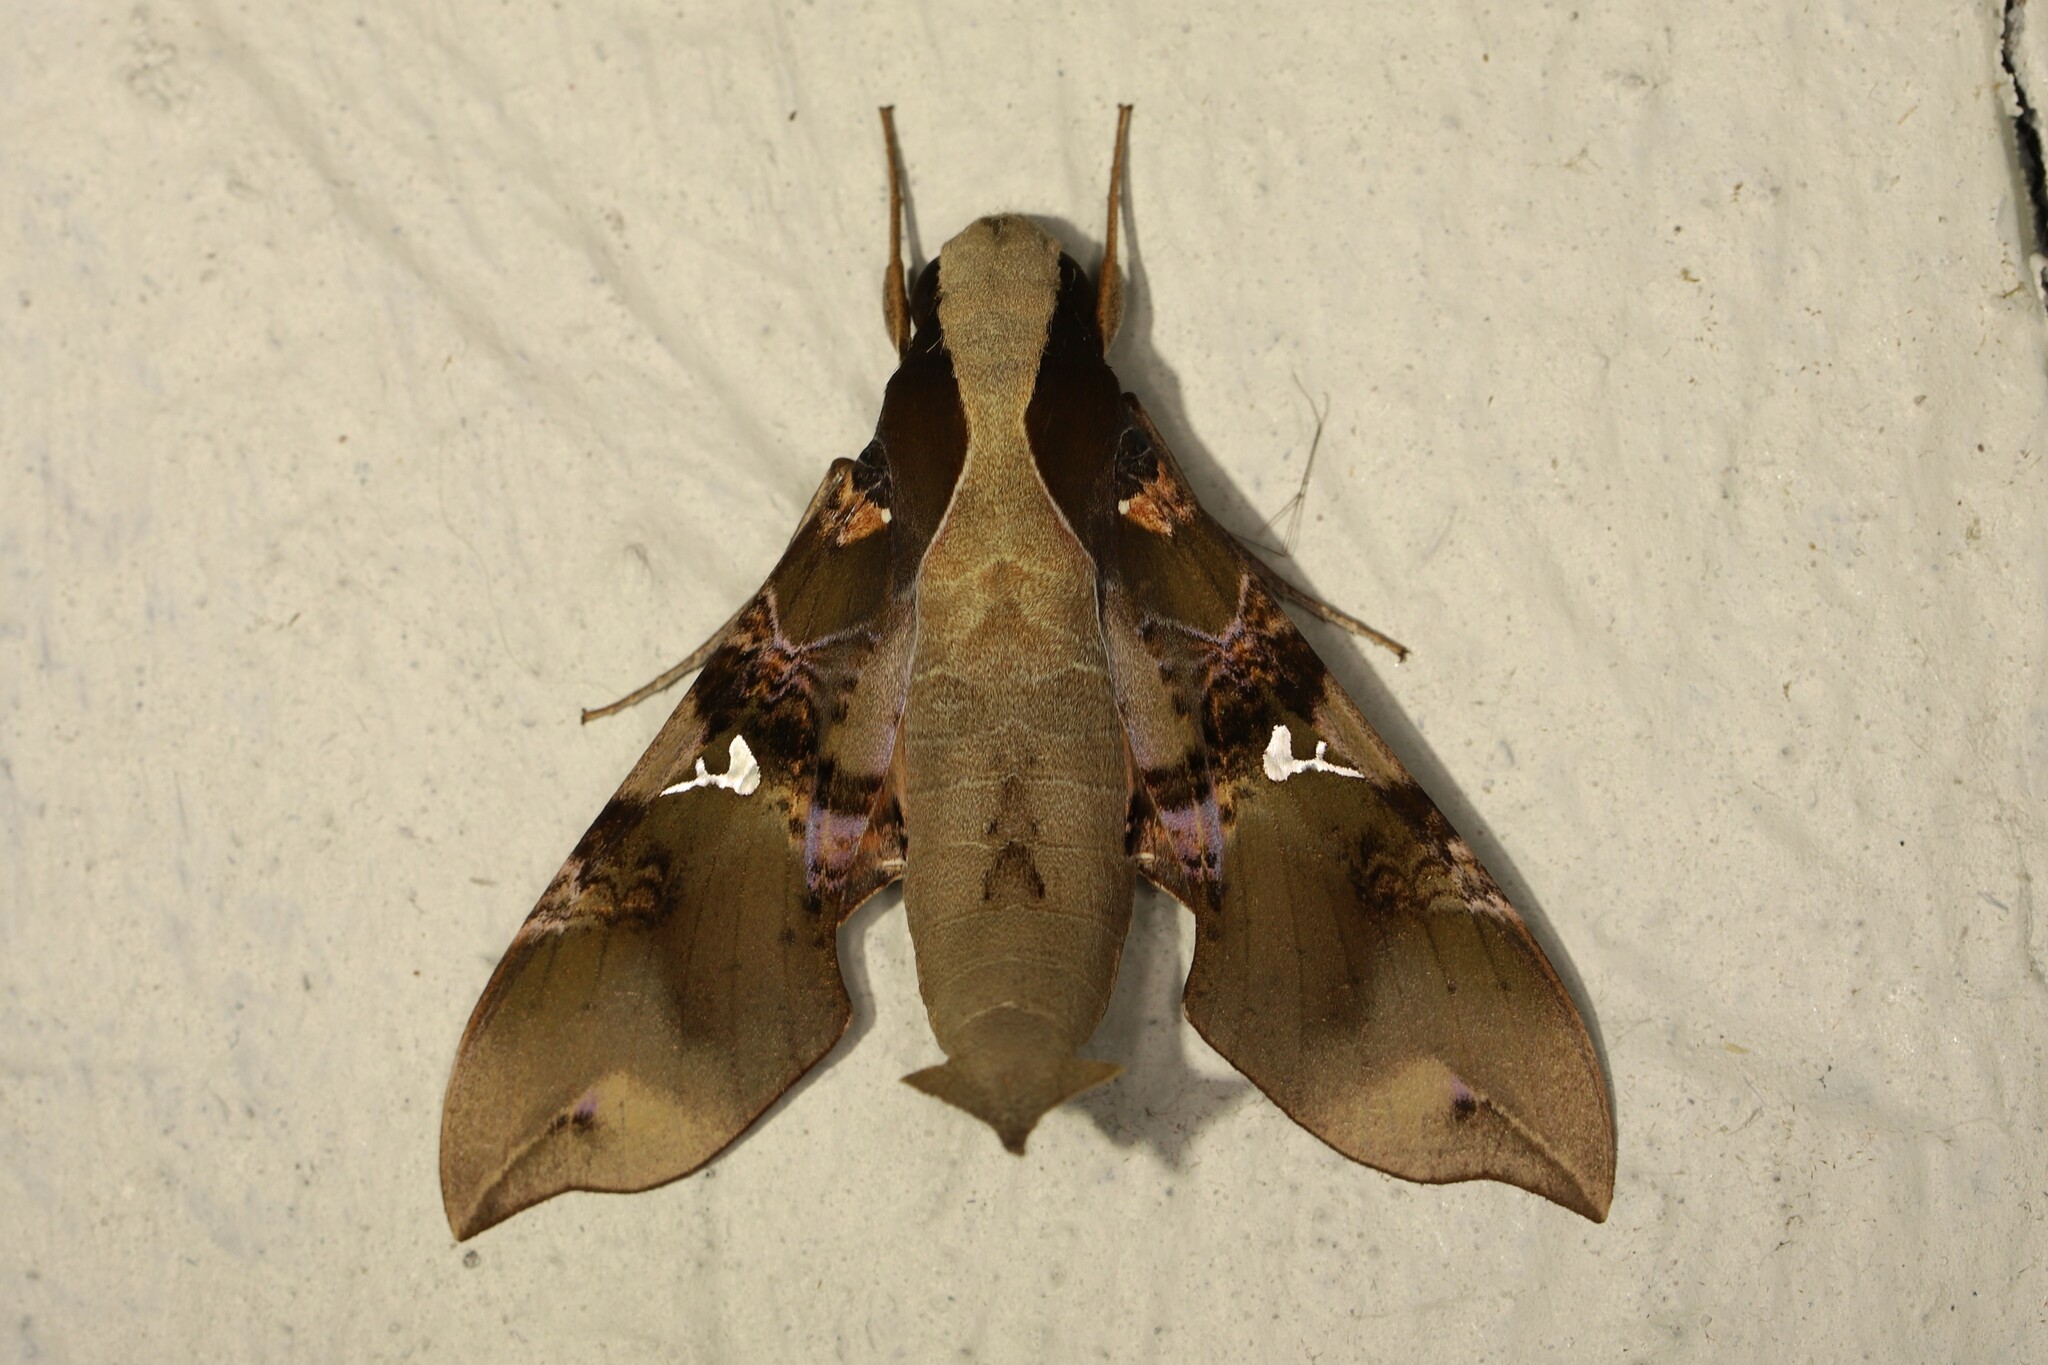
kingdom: Animalia
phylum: Arthropoda
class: Insecta
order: Lepidoptera
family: Sphingidae
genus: Callionima
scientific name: Callionima parce
